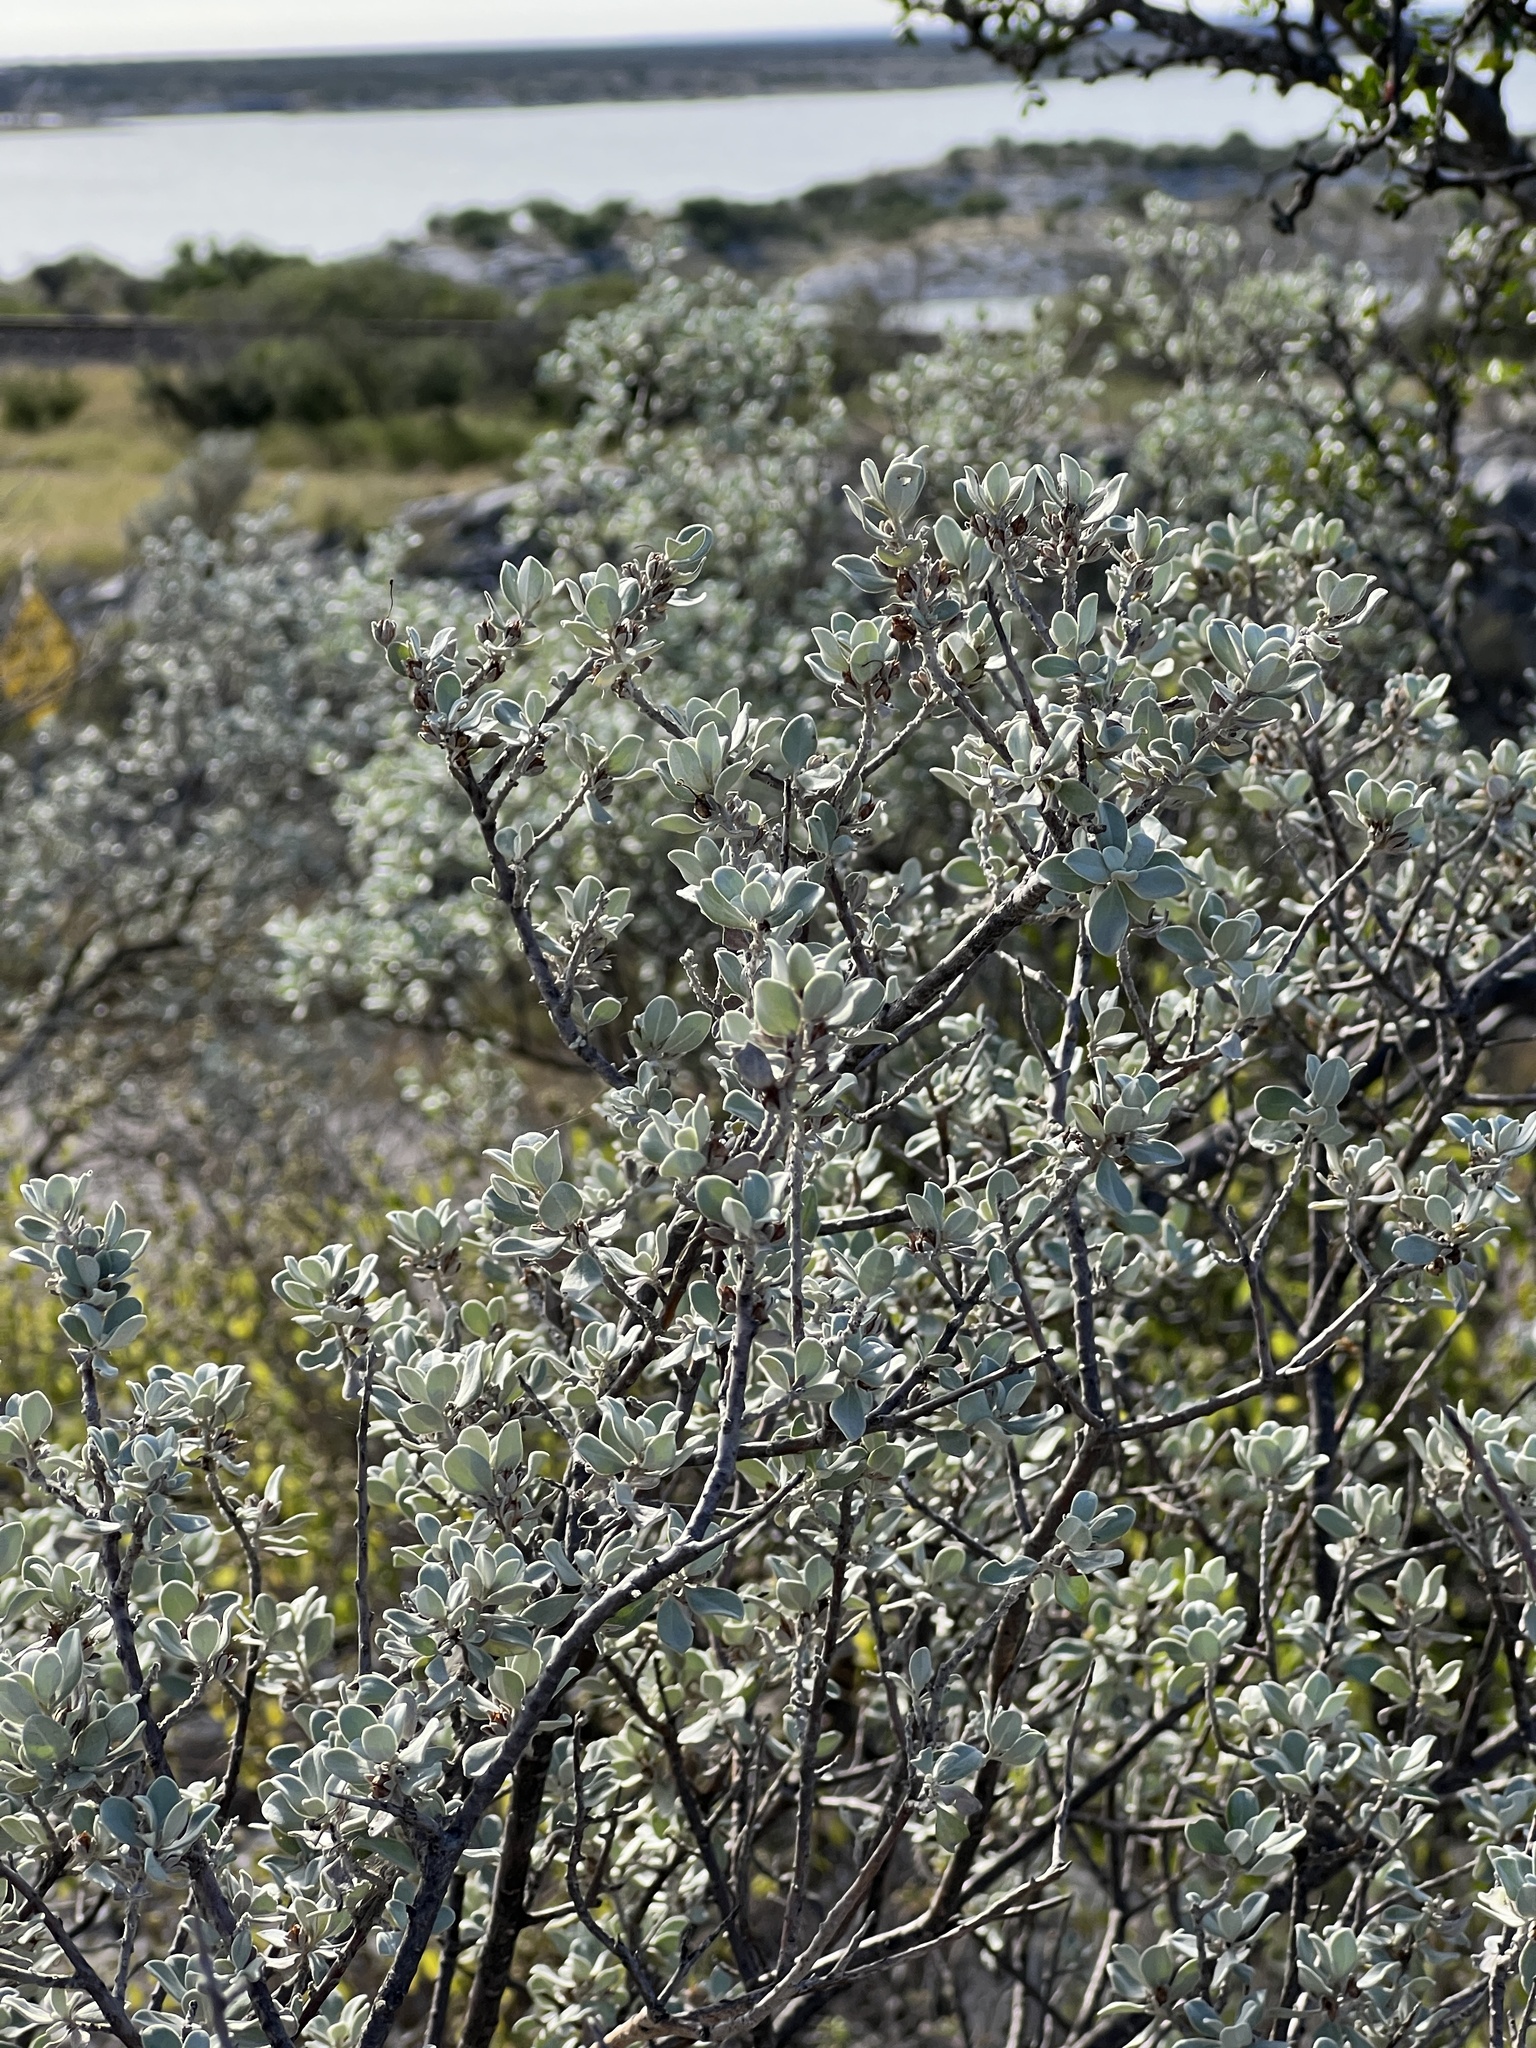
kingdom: Plantae
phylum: Tracheophyta
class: Magnoliopsida
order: Lamiales
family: Scrophulariaceae
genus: Leucophyllum
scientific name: Leucophyllum frutescens
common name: Texas silverleaf
